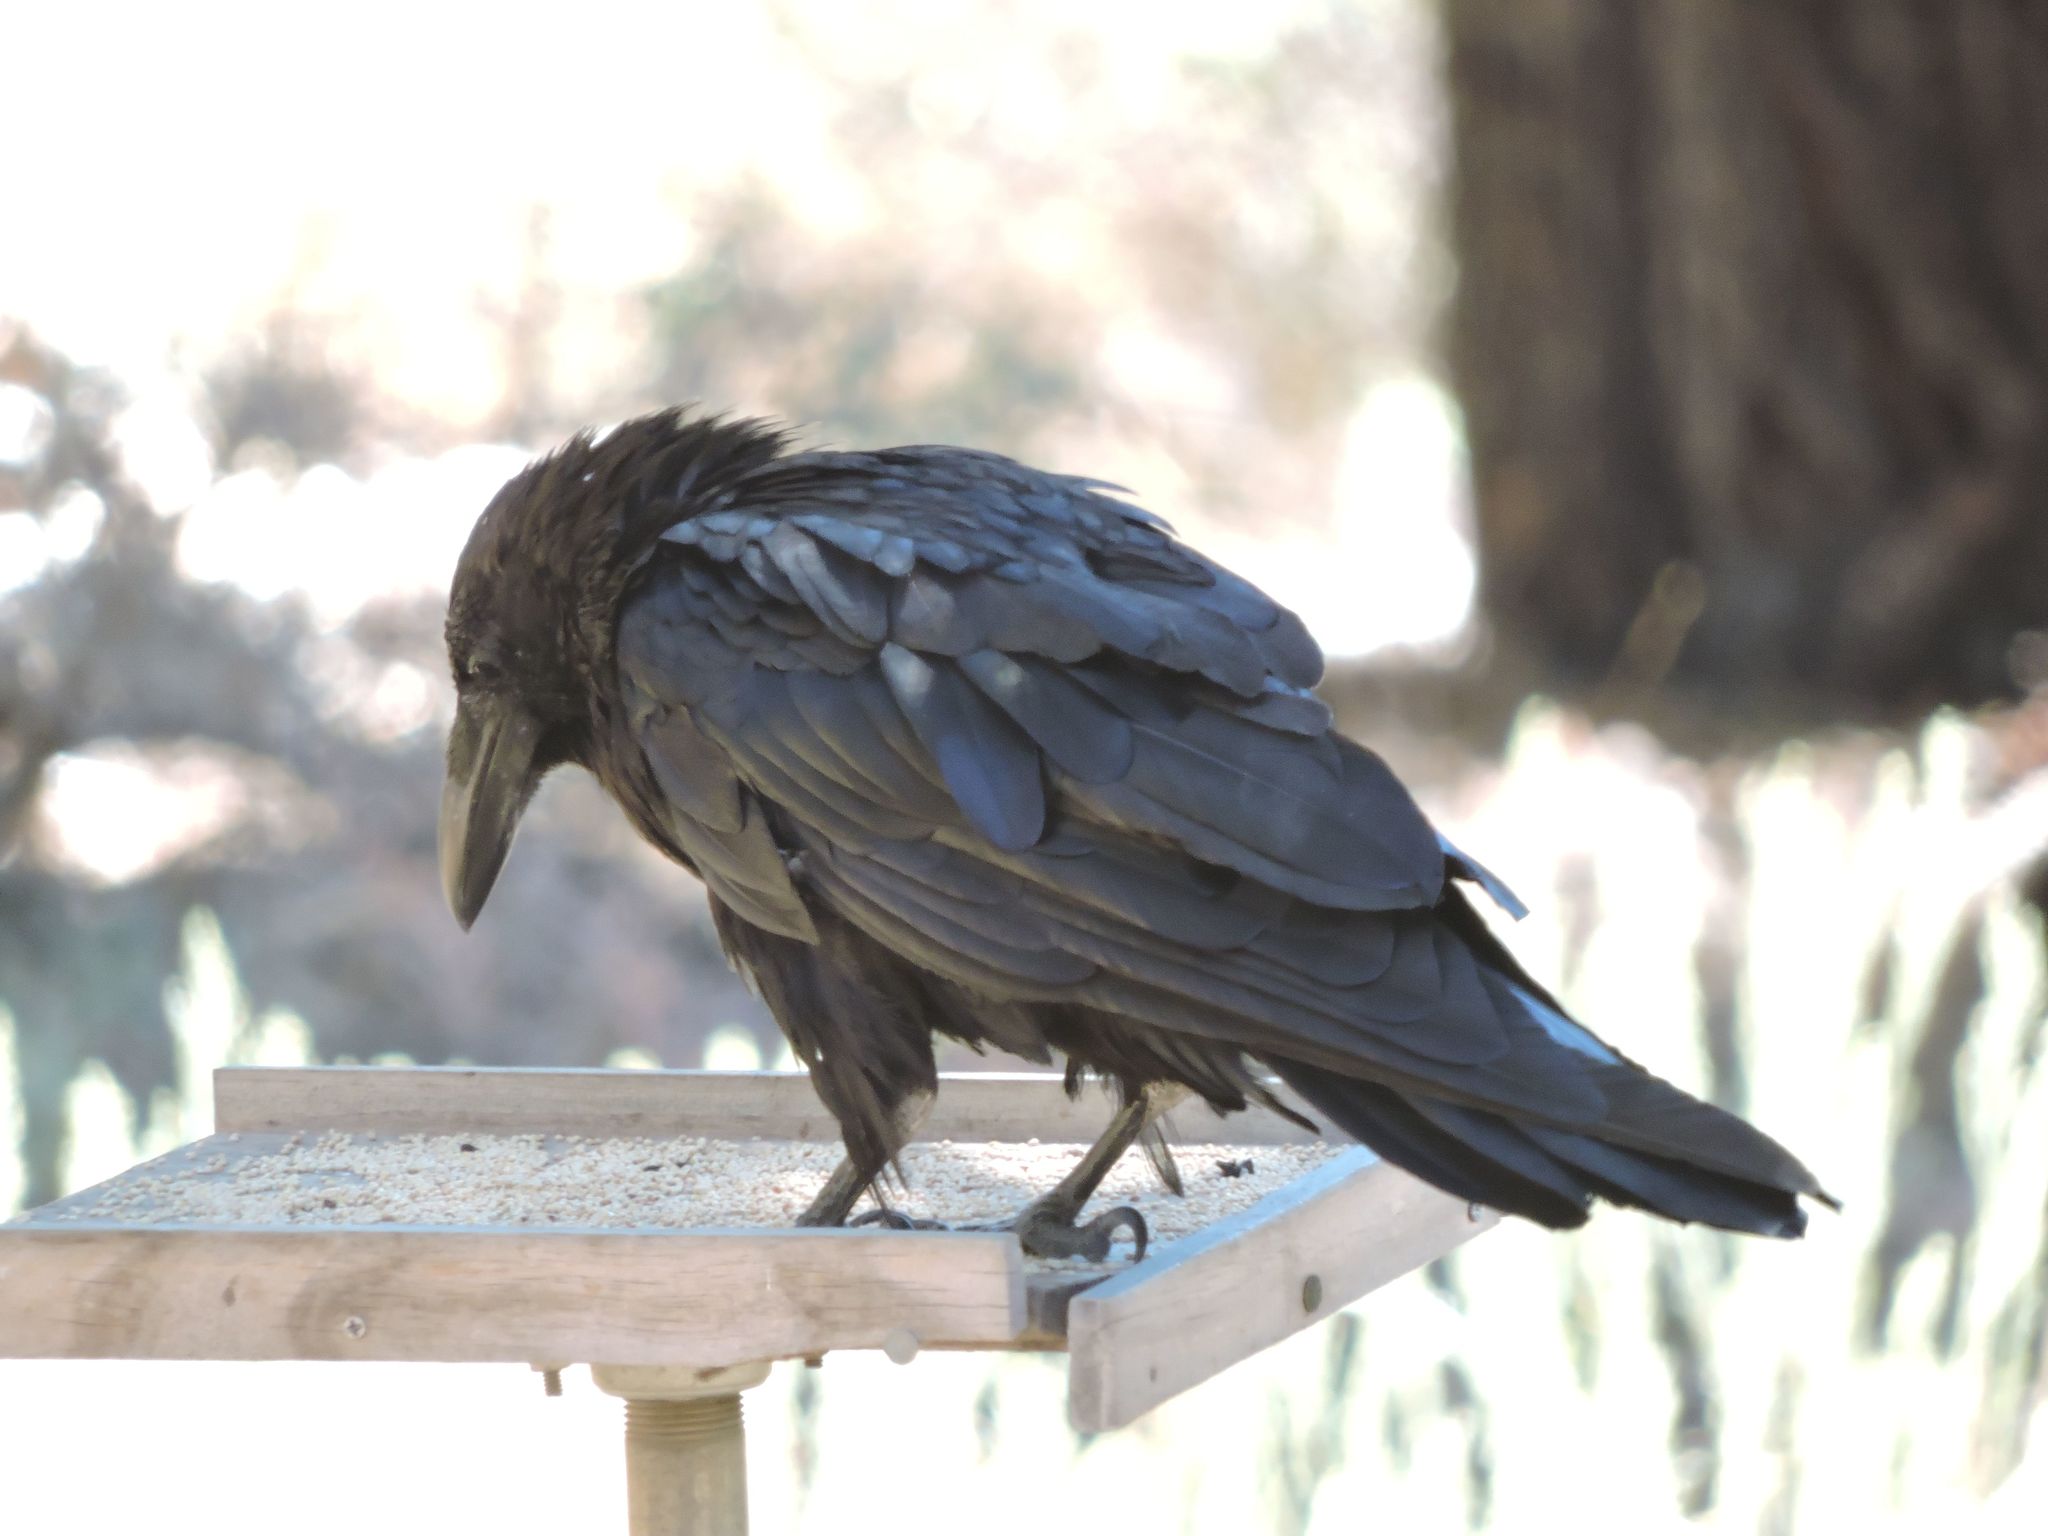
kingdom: Animalia
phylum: Chordata
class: Aves
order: Passeriformes
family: Corvidae
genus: Corvus
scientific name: Corvus corax
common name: Common raven
